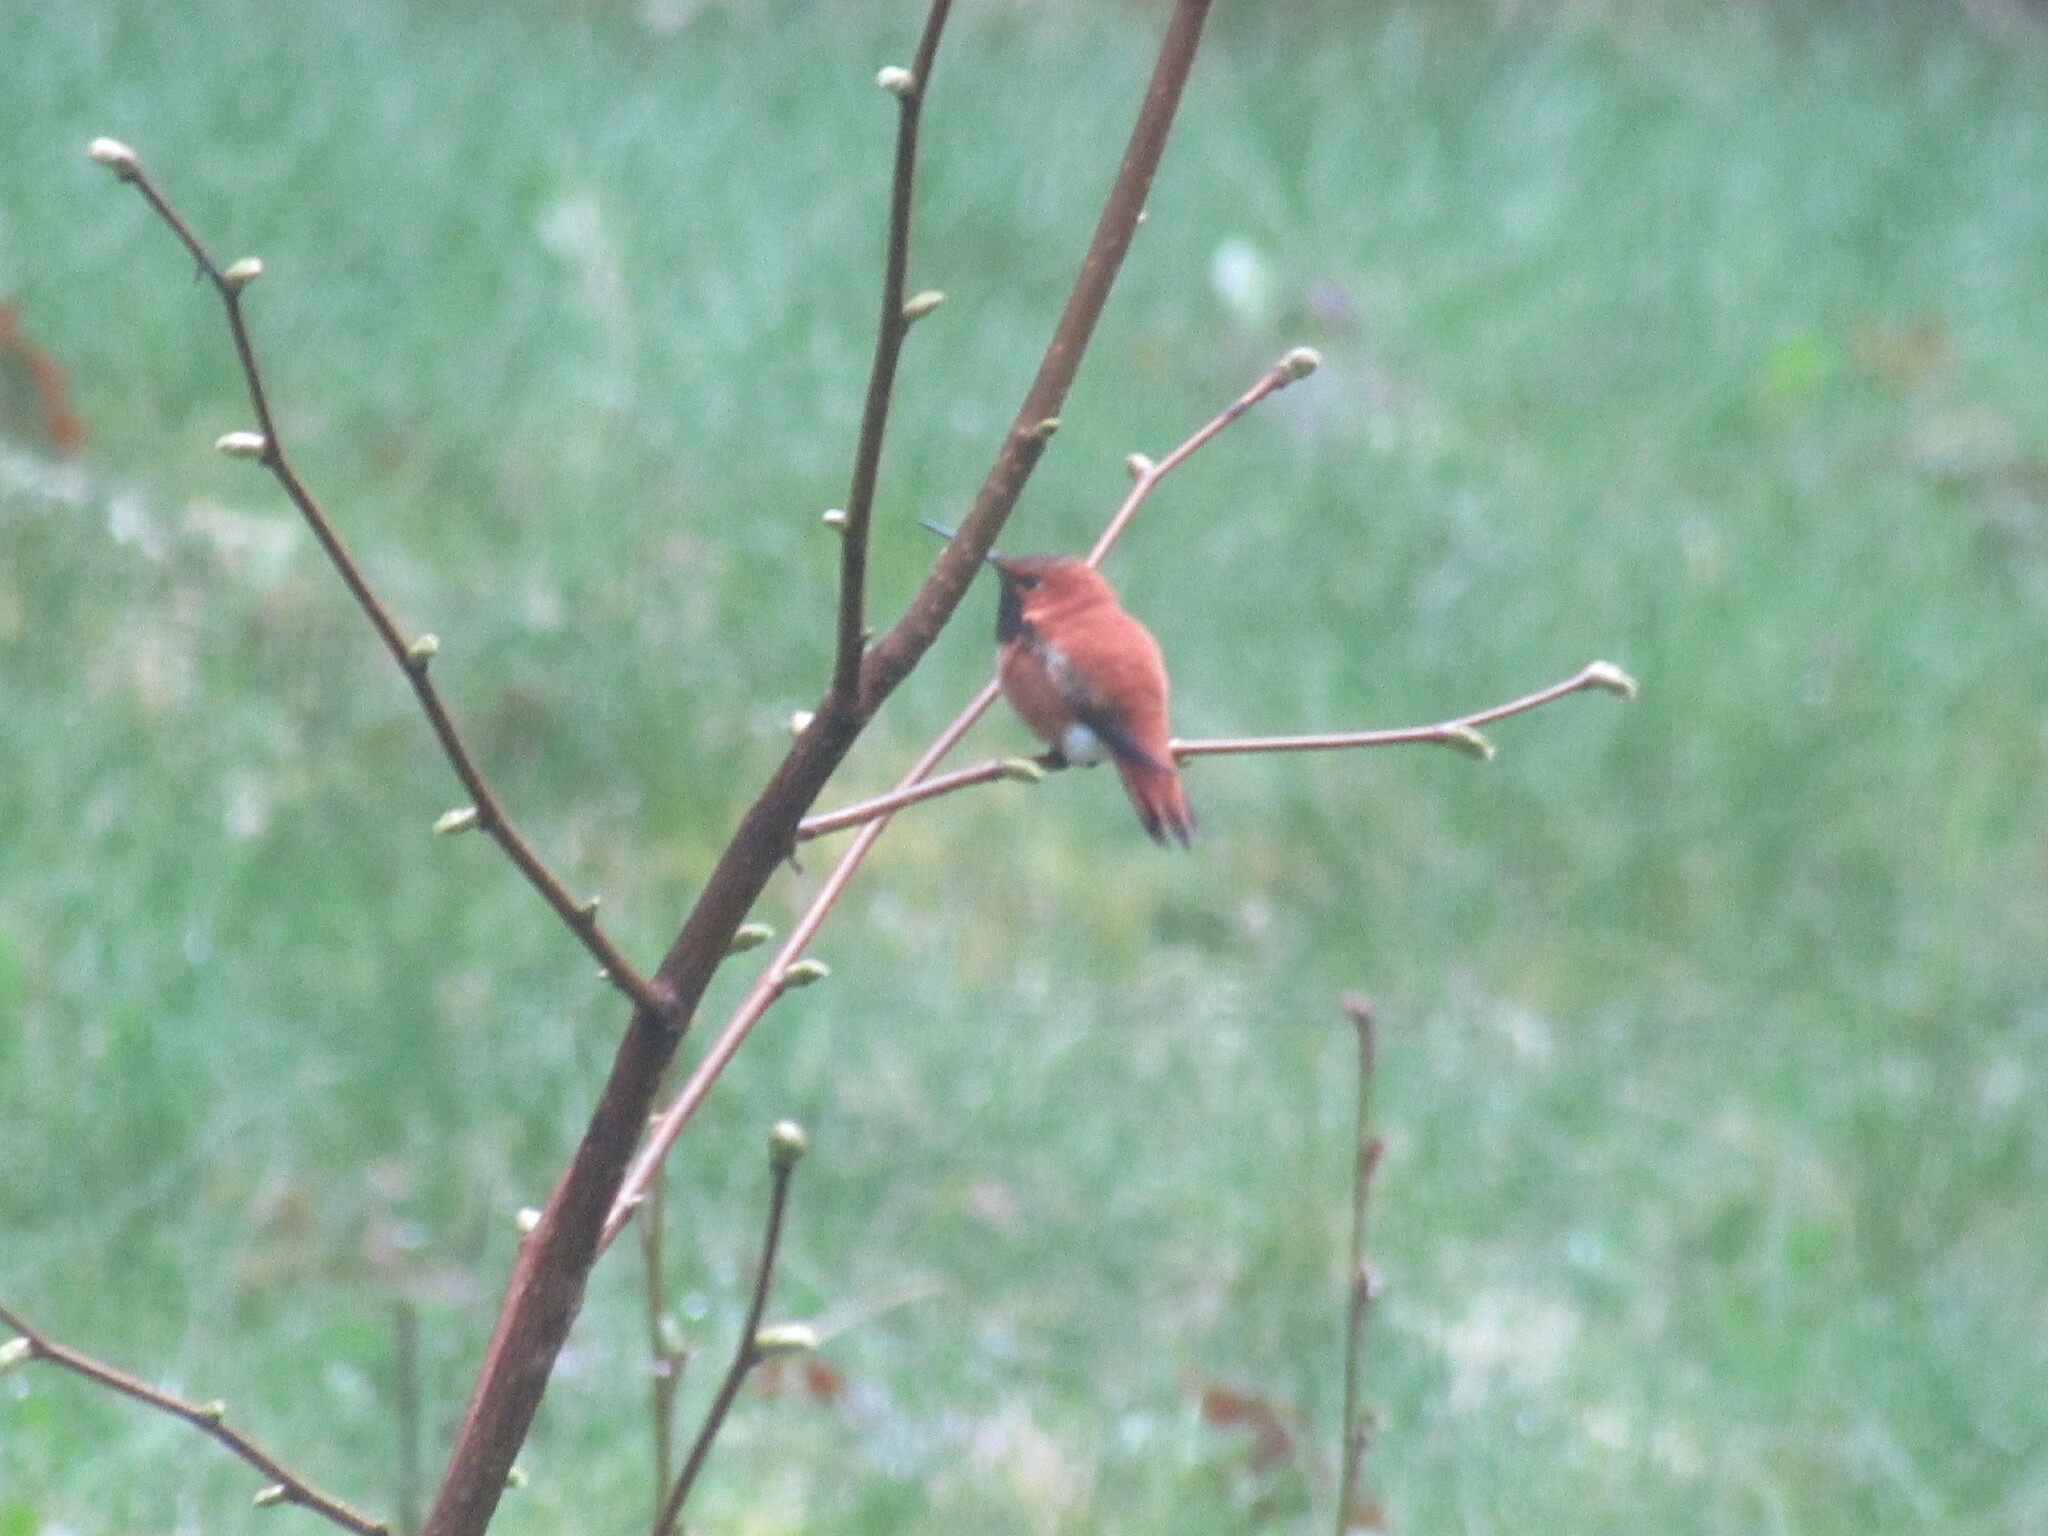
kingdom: Animalia
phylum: Chordata
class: Aves
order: Apodiformes
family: Trochilidae
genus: Selasphorus
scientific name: Selasphorus rufus
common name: Rufous hummingbird
